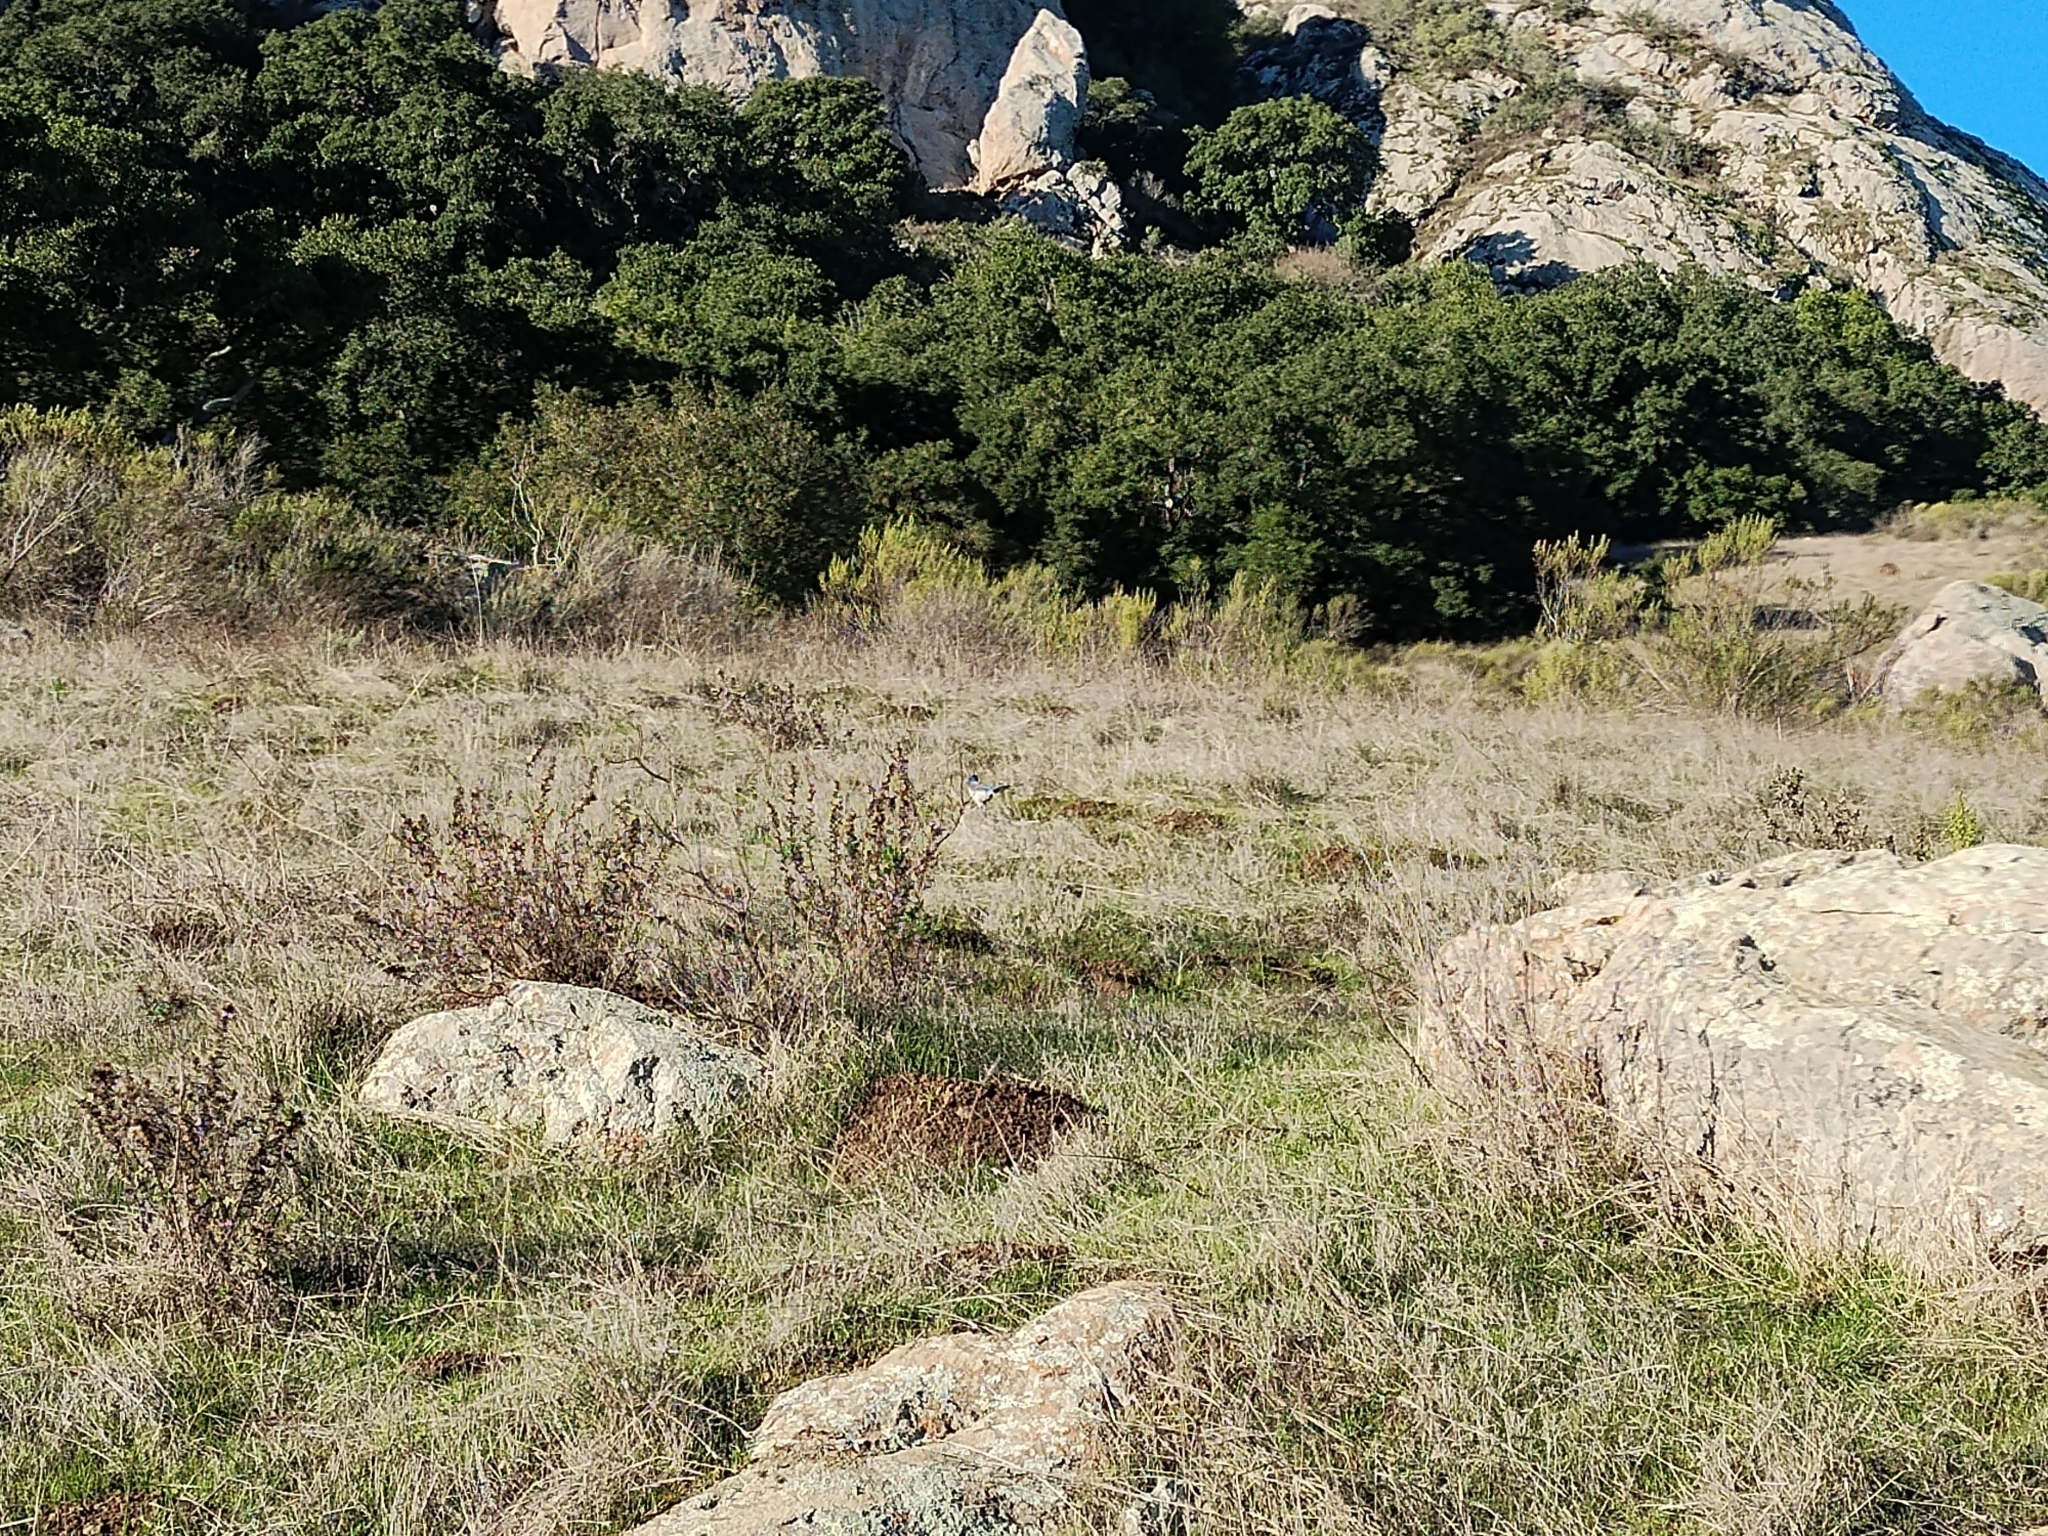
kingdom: Animalia
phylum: Chordata
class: Aves
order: Passeriformes
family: Corvidae
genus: Aphelocoma
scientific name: Aphelocoma californica
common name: California scrub-jay
